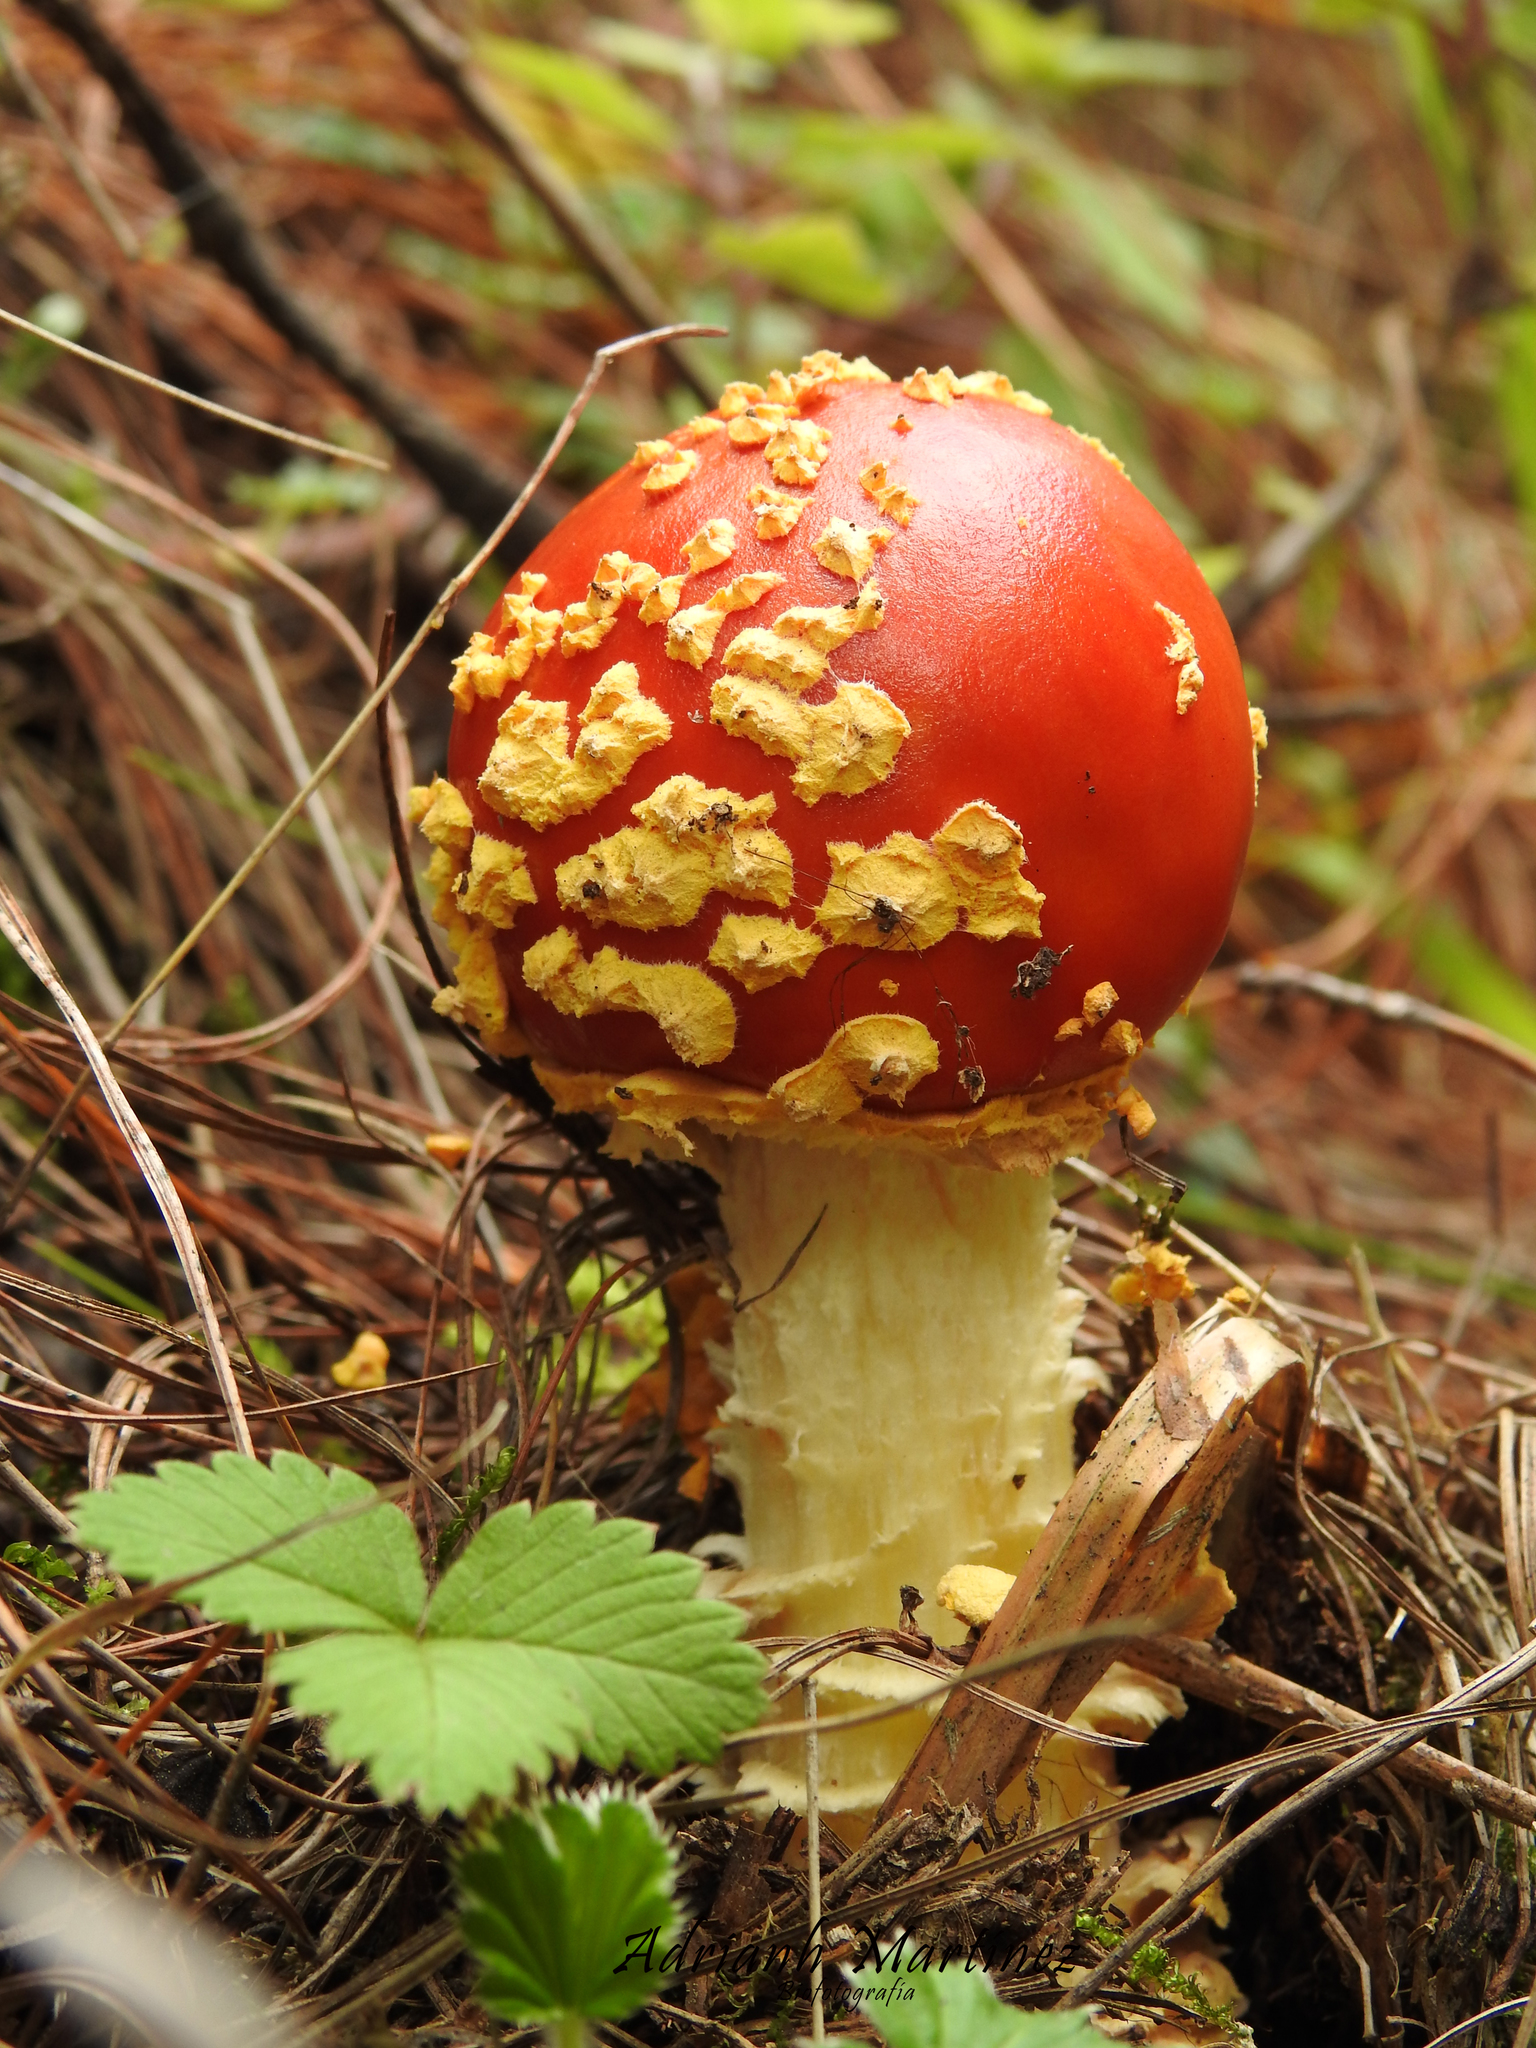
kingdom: Fungi
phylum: Basidiomycota
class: Agaricomycetes
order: Agaricales
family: Amanitaceae
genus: Amanita
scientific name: Amanita muscaria
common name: Fly agaric
